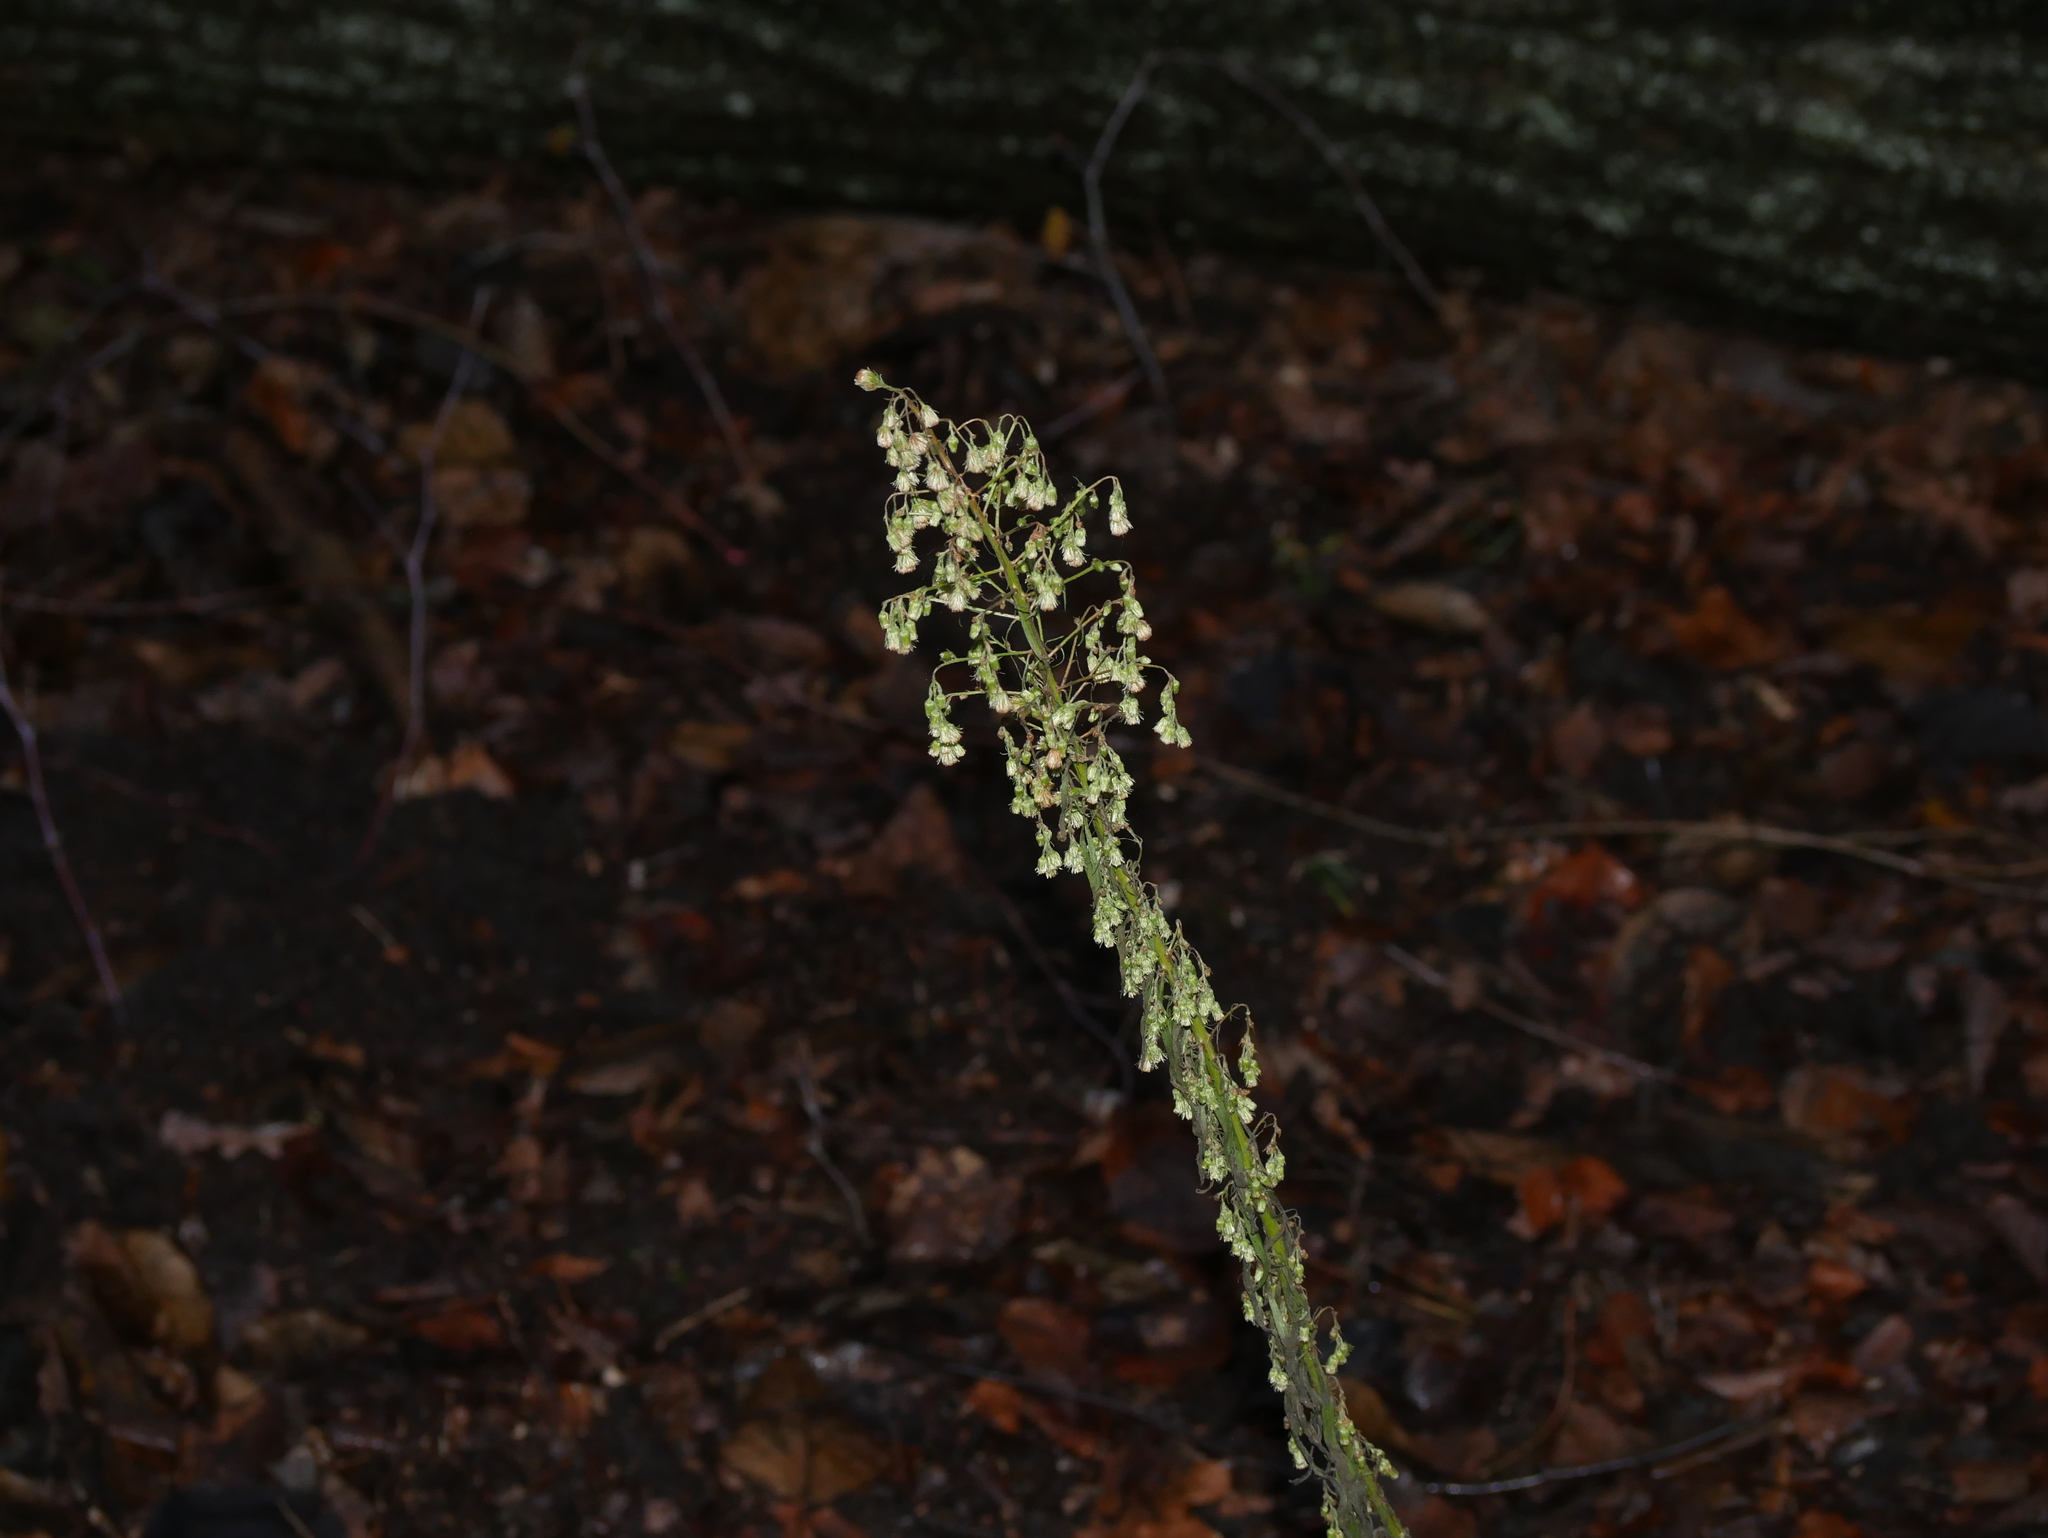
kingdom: Plantae
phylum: Tracheophyta
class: Magnoliopsida
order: Asterales
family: Asteraceae
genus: Erigeron
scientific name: Erigeron canadensis
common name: Canadian fleabane
